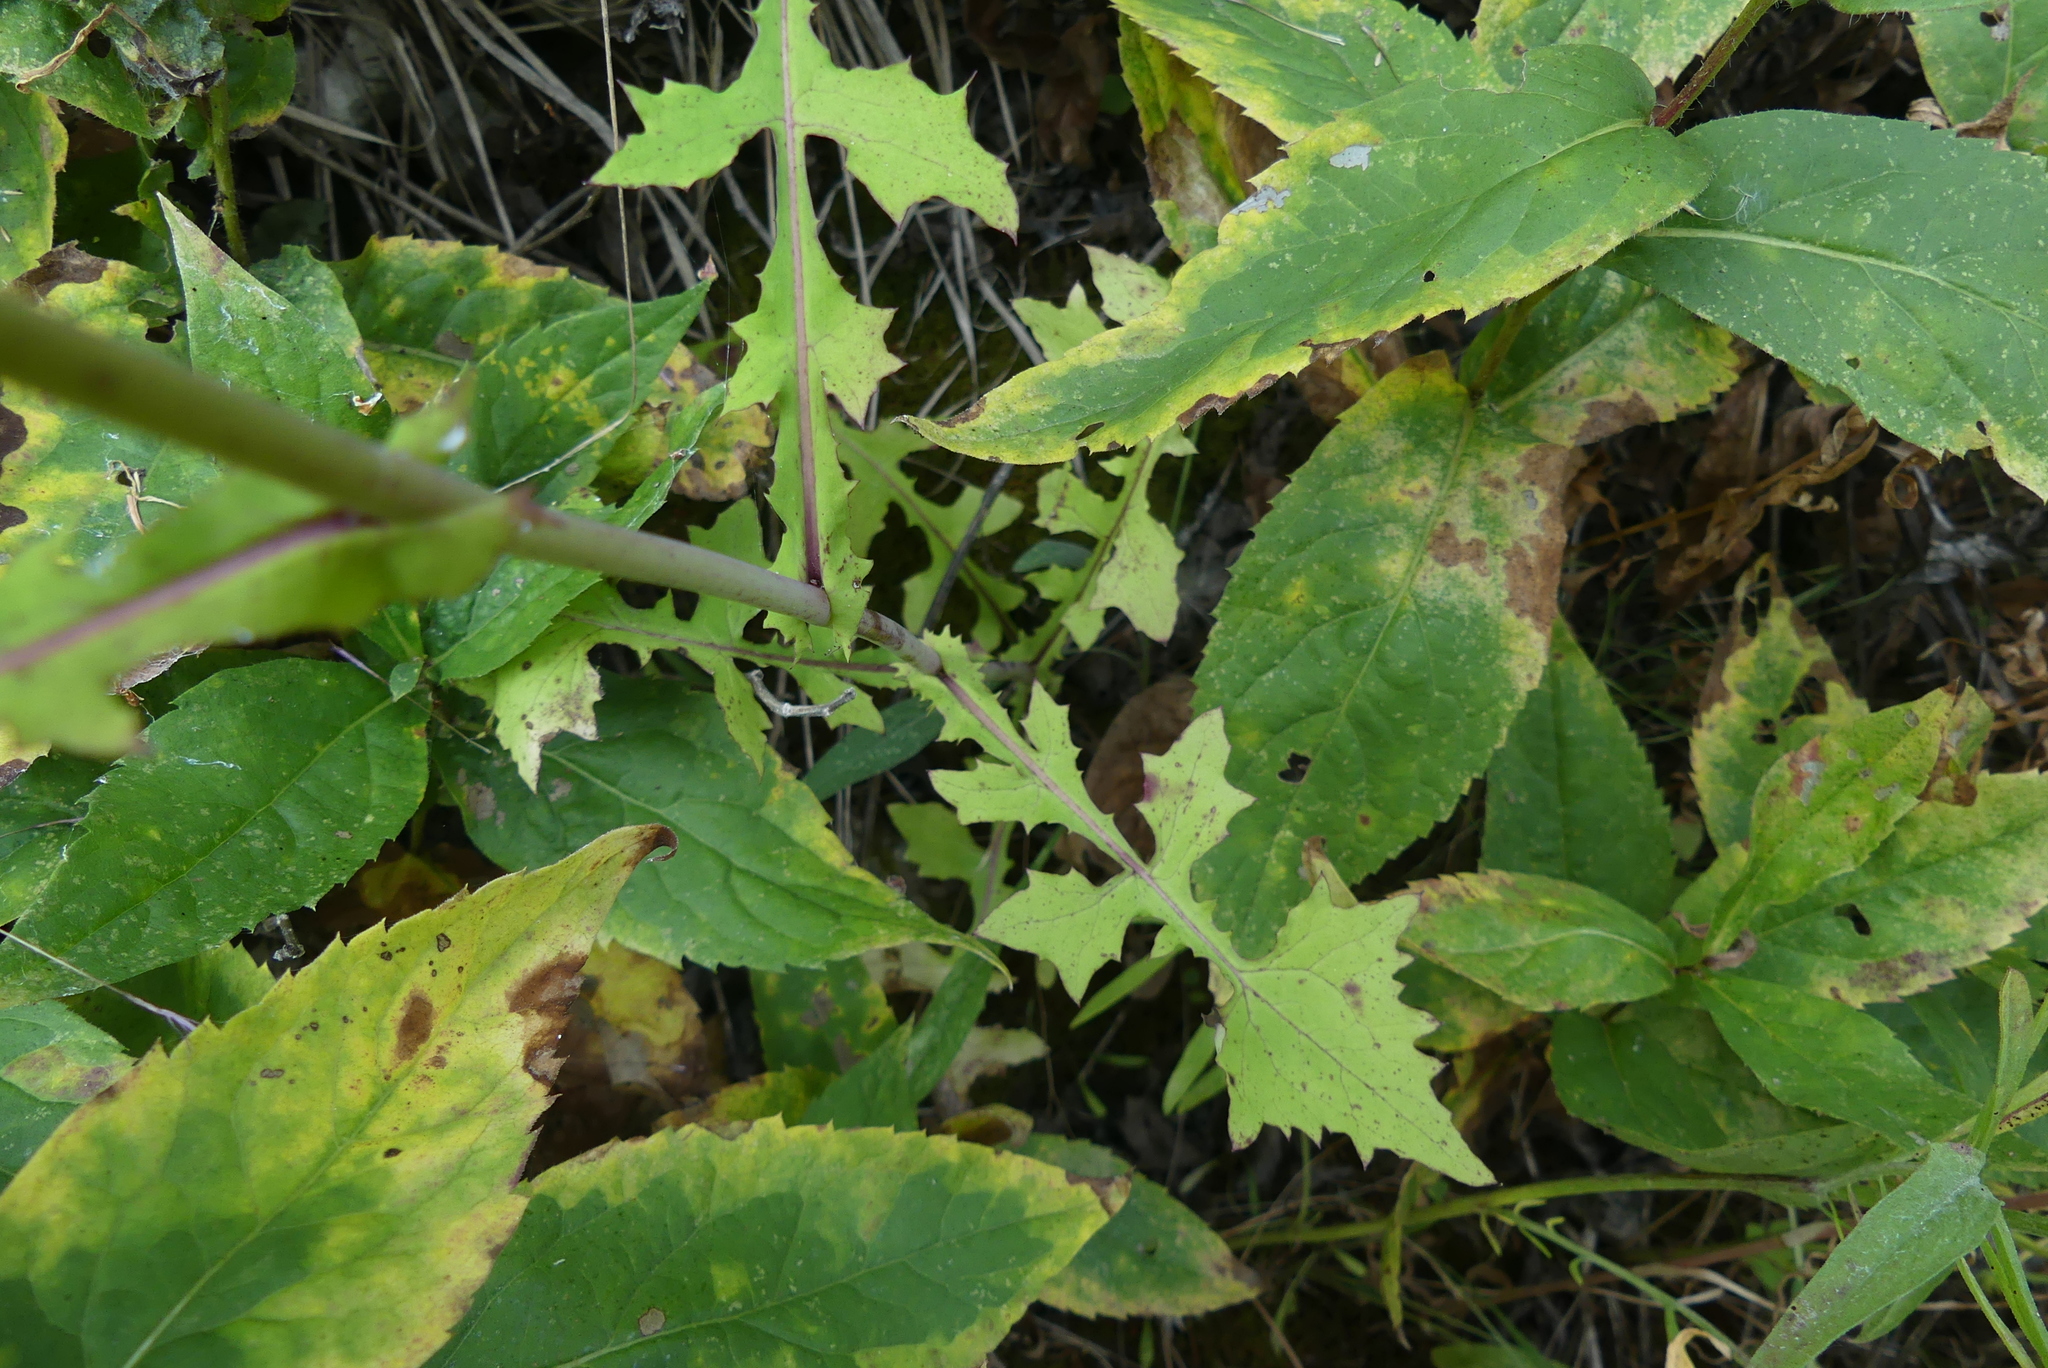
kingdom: Plantae
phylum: Tracheophyta
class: Magnoliopsida
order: Asterales
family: Asteraceae
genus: Mycelis
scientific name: Mycelis muralis
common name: Wall lettuce
